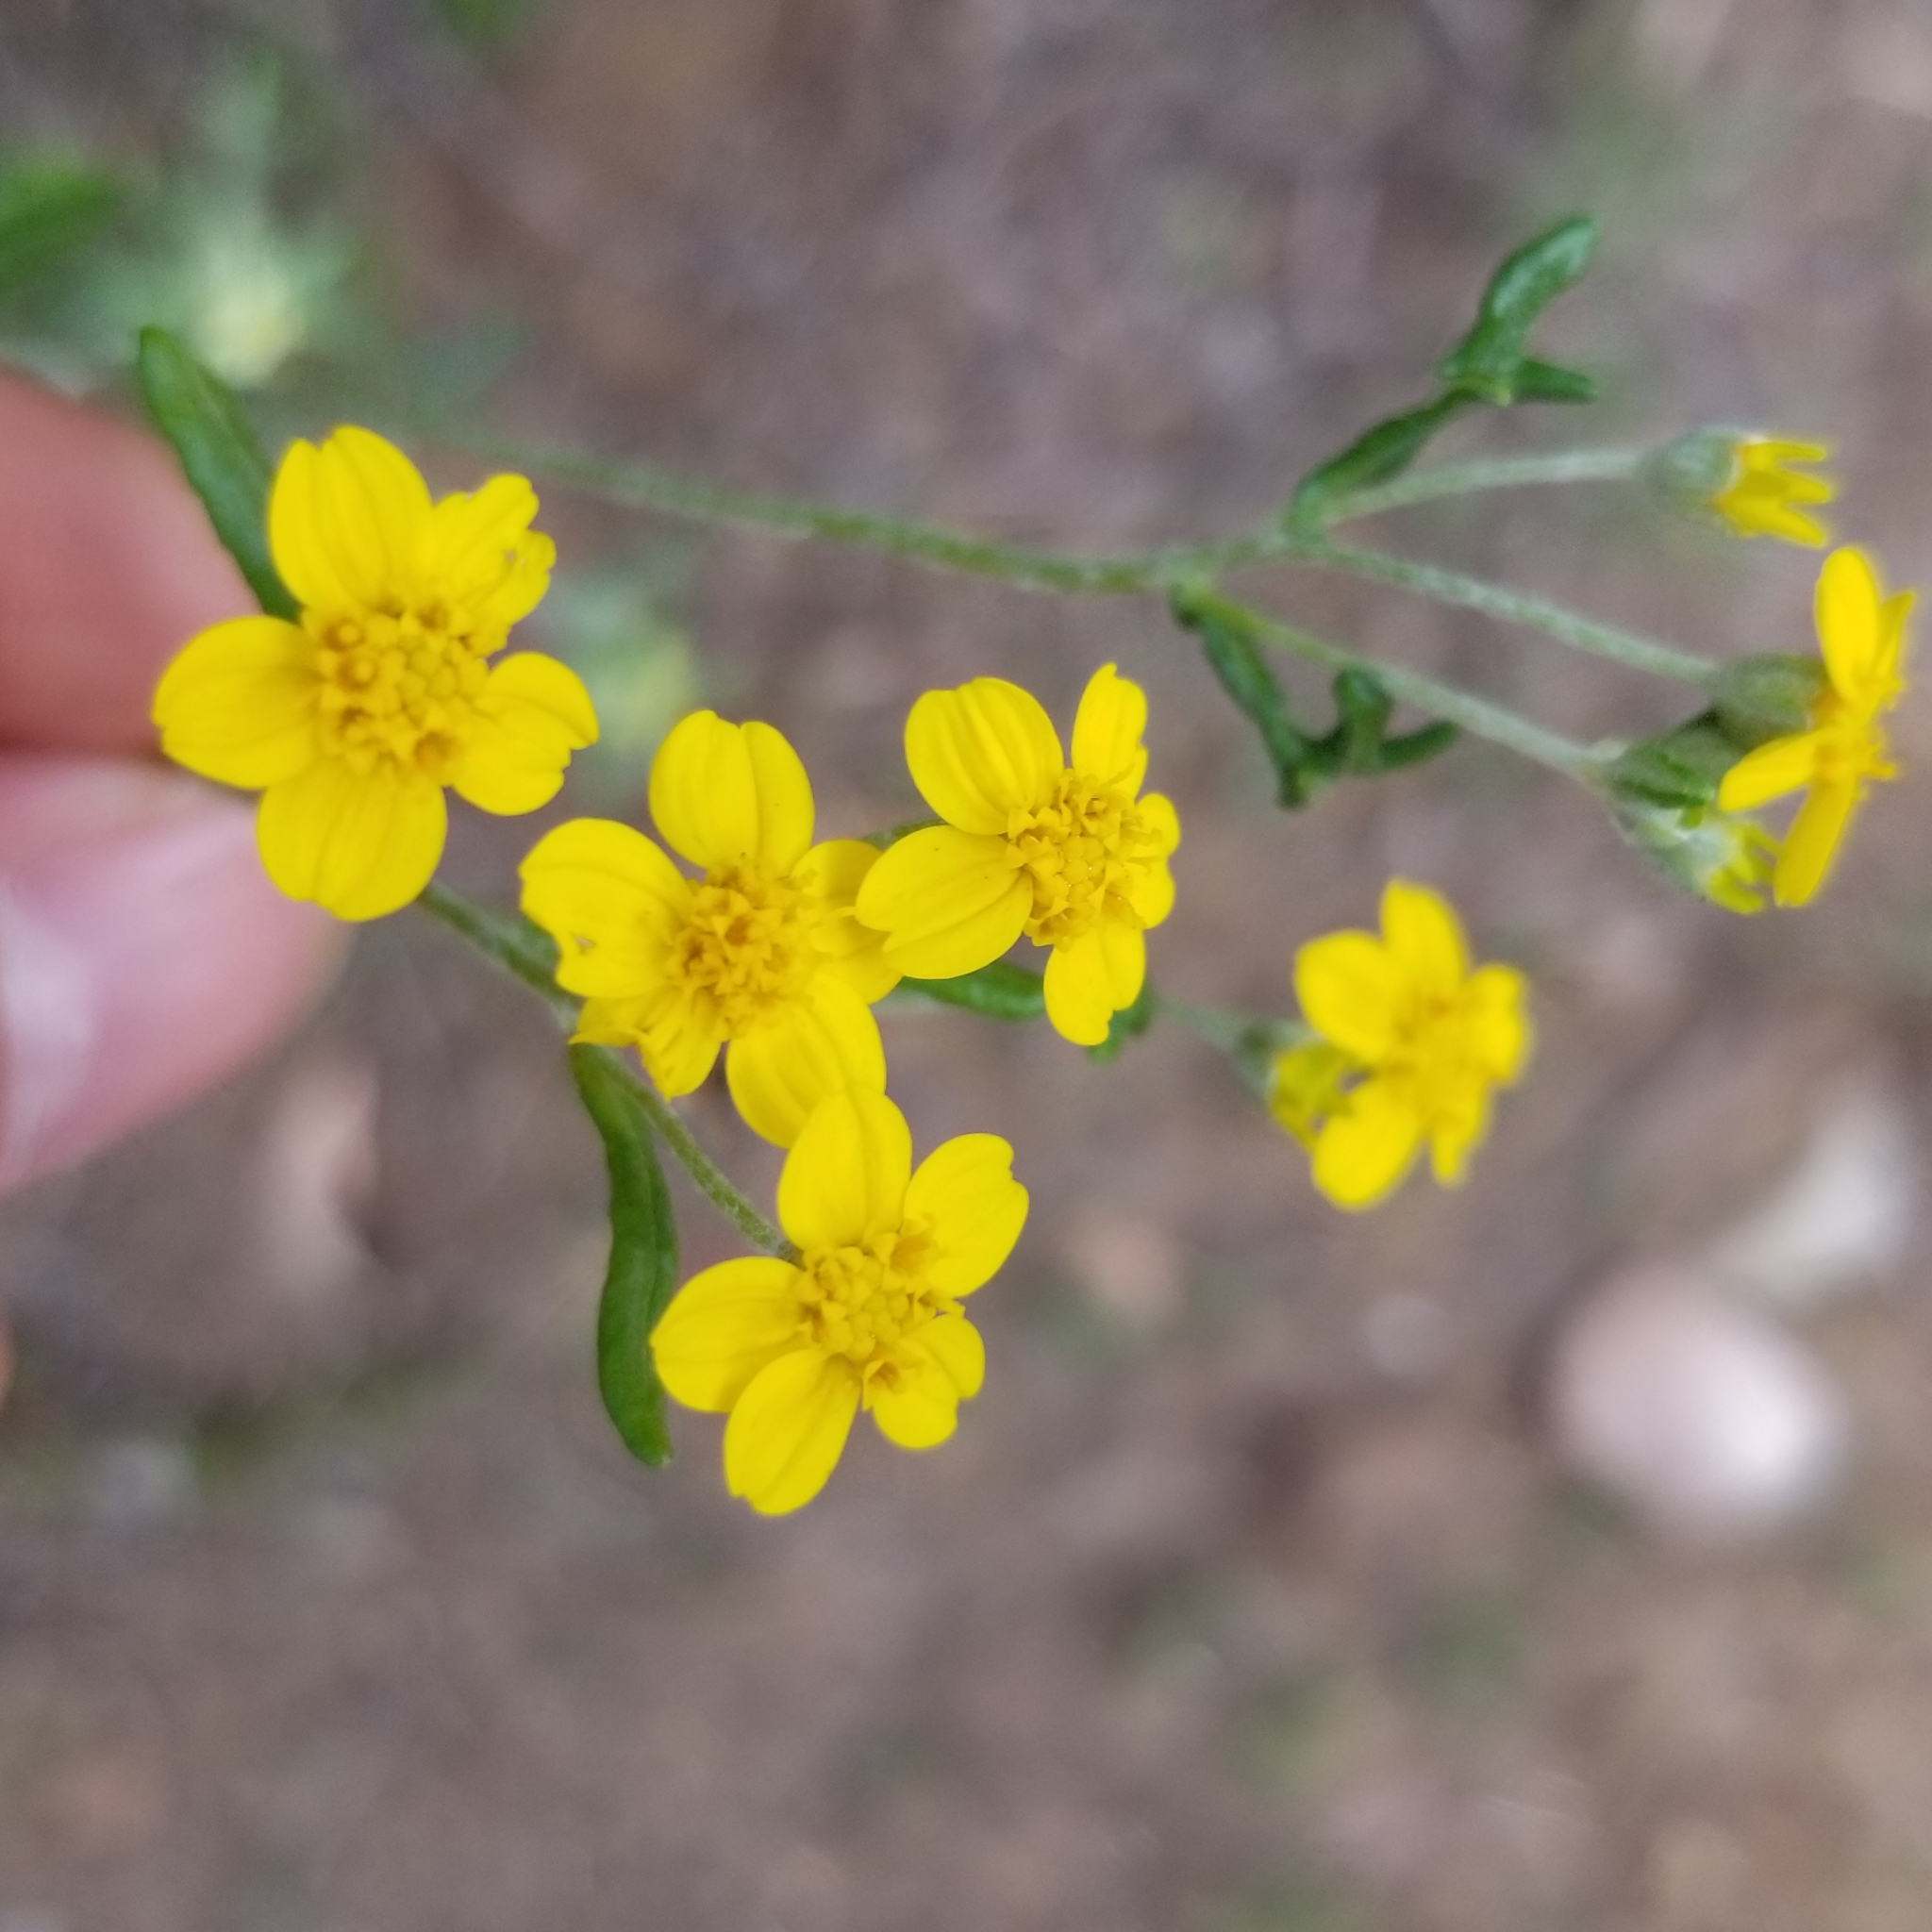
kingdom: Plantae
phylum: Tracheophyta
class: Magnoliopsida
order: Asterales
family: Asteraceae
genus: Eriophyllum
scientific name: Eriophyllum confertiflorum
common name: Golden-yarrow
